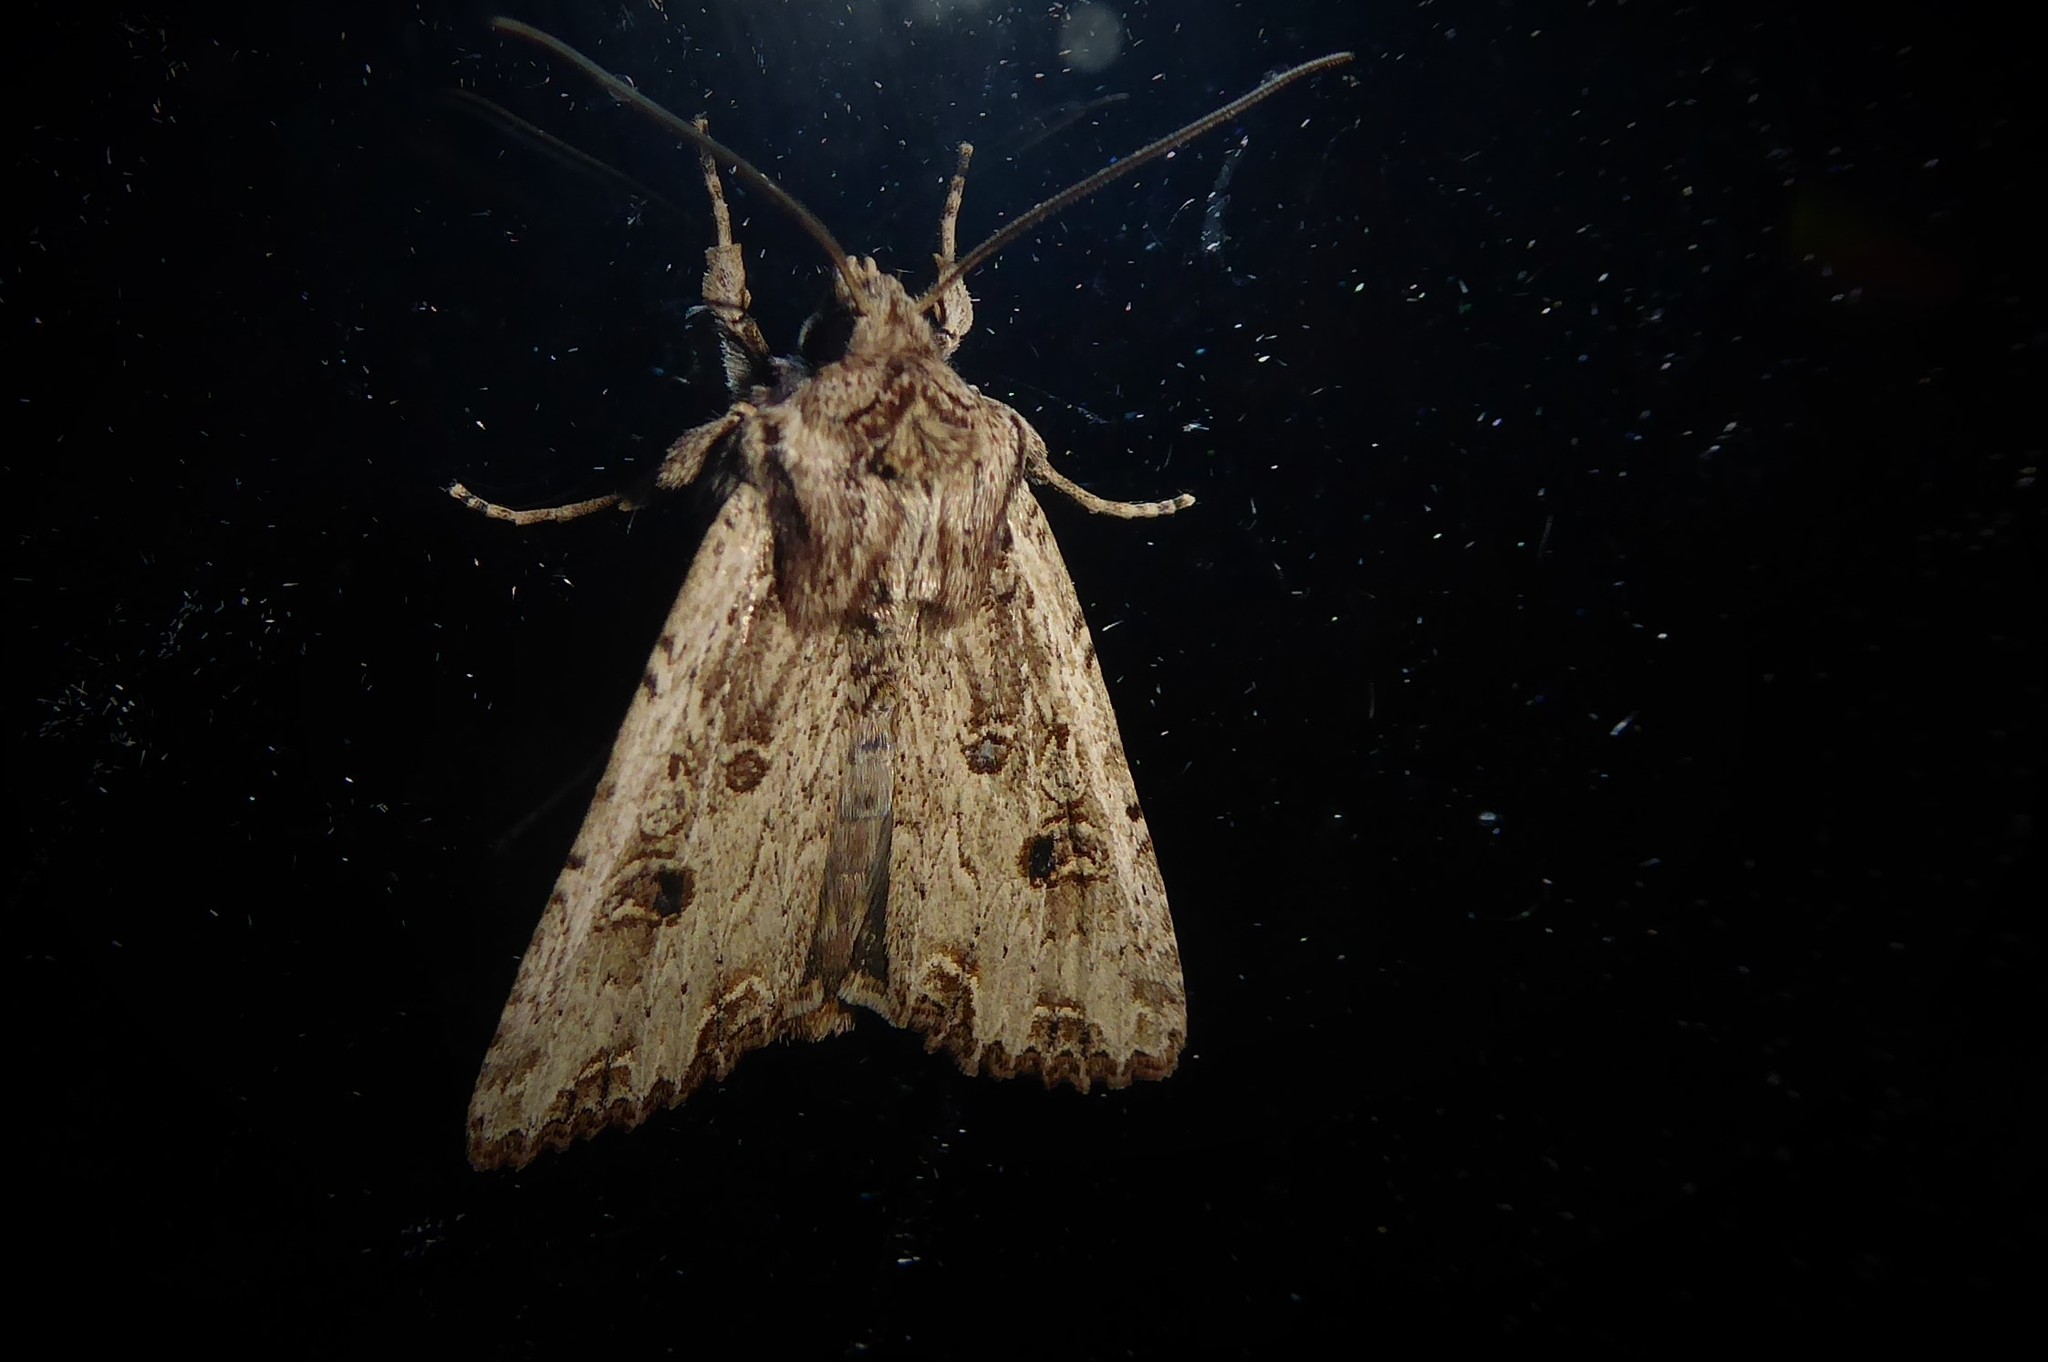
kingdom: Animalia
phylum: Arthropoda
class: Insecta
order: Lepidoptera
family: Noctuidae
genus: Ichneutica
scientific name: Ichneutica lignana
